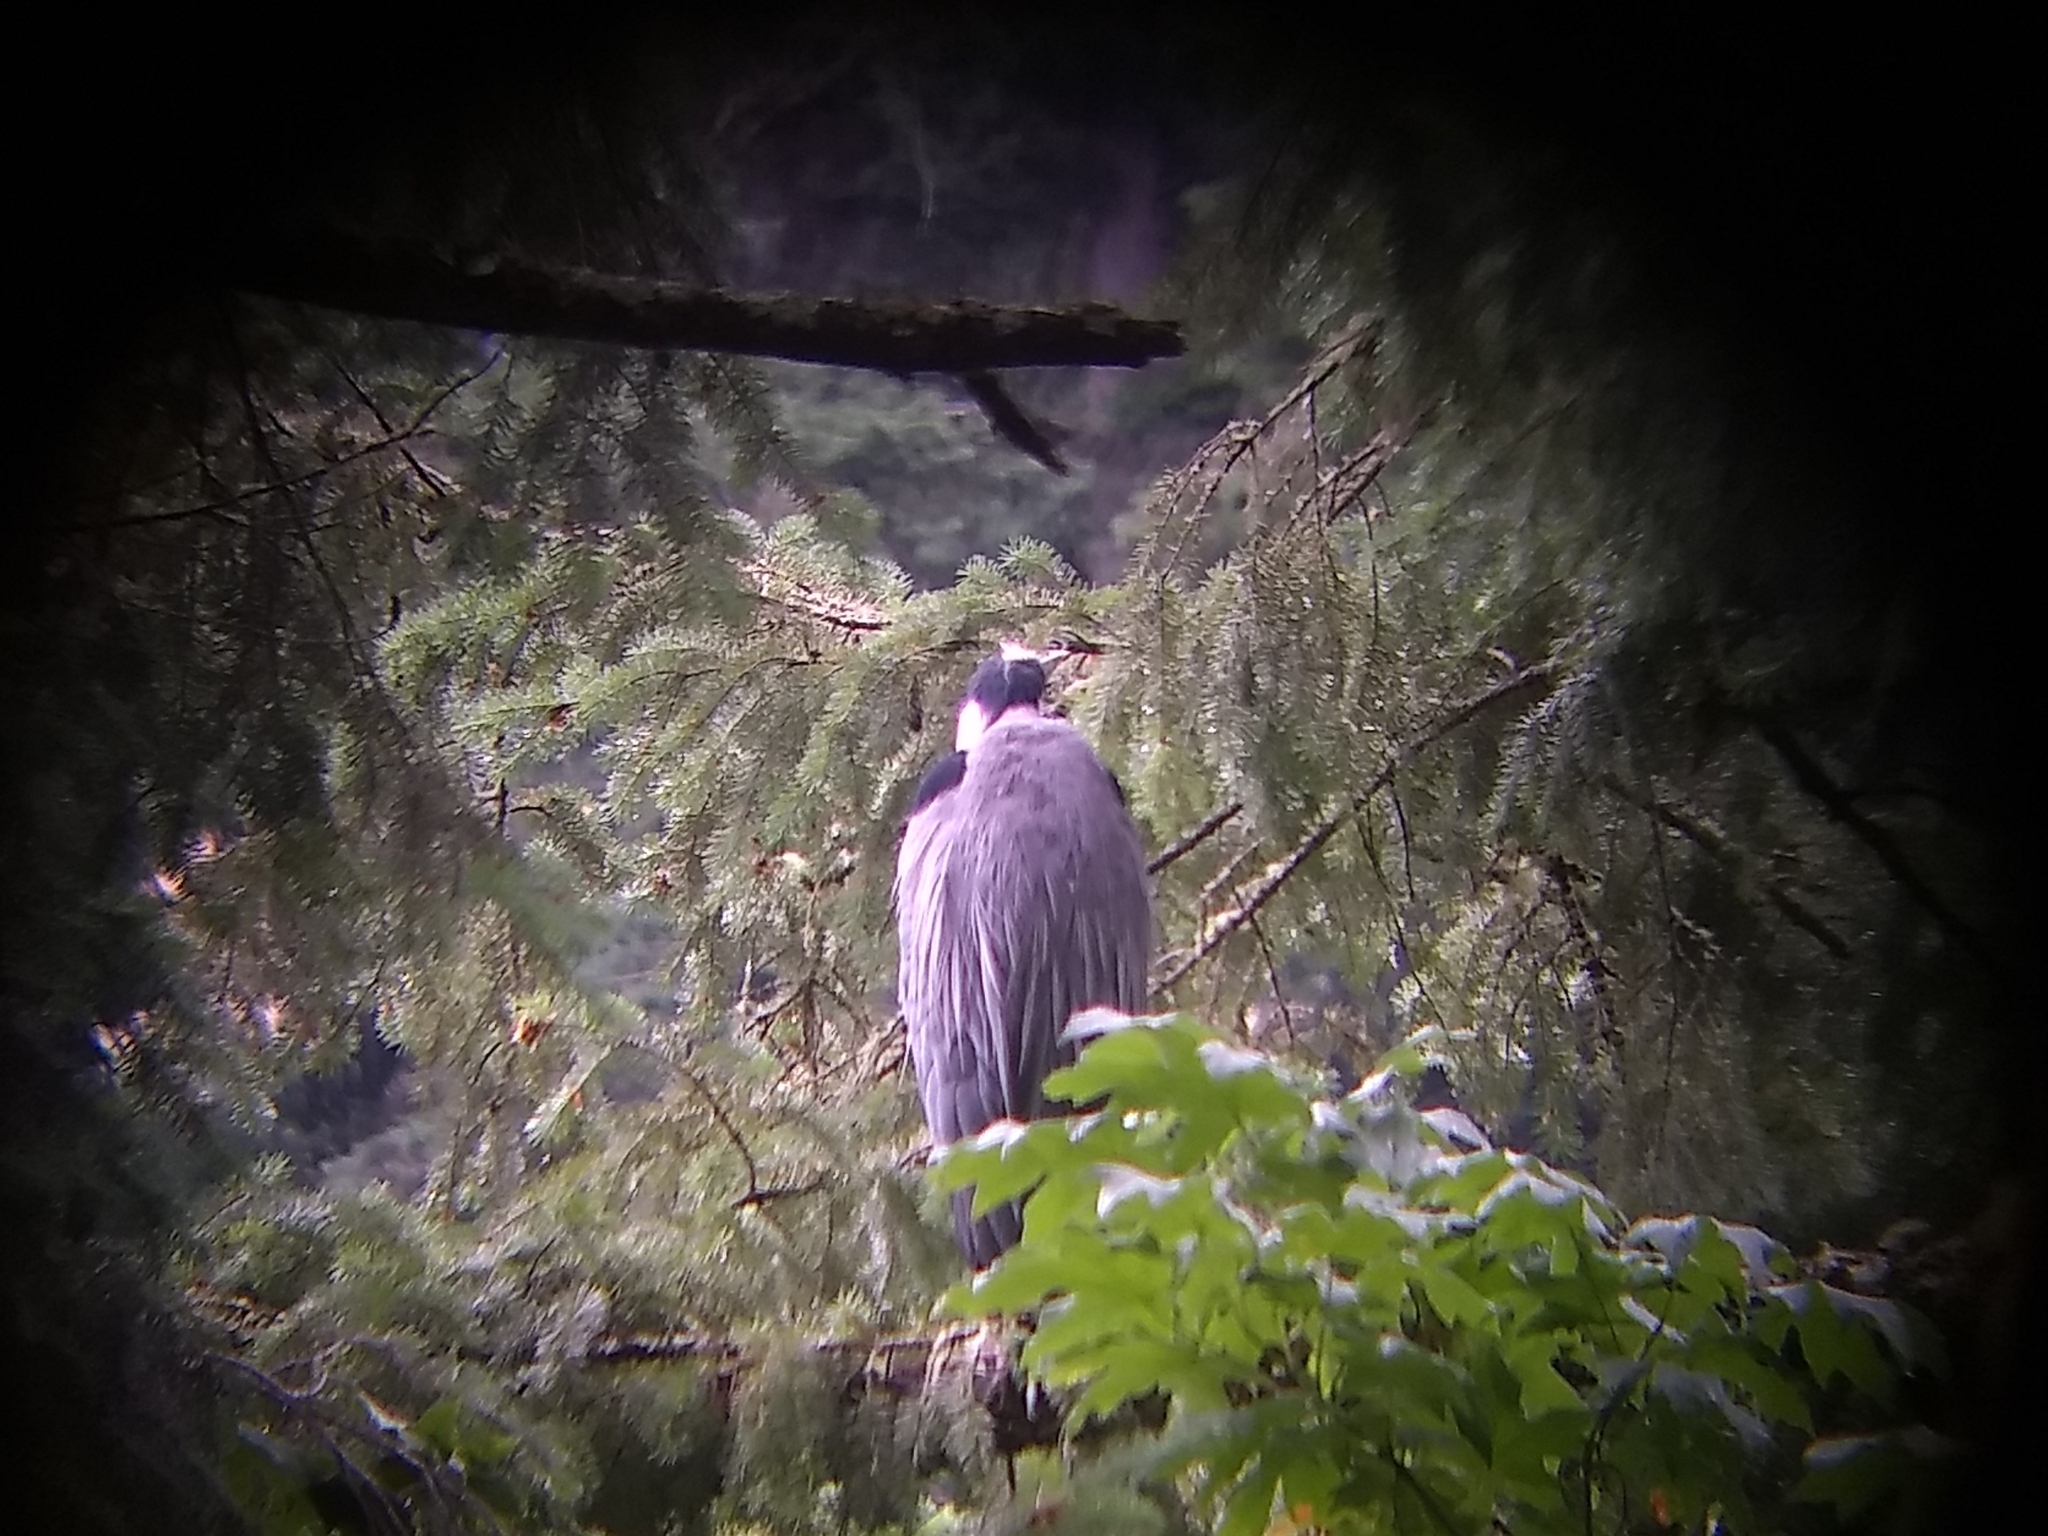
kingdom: Animalia
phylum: Chordata
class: Aves
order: Pelecaniformes
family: Ardeidae
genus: Ardea
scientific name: Ardea herodias
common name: Great blue heron
